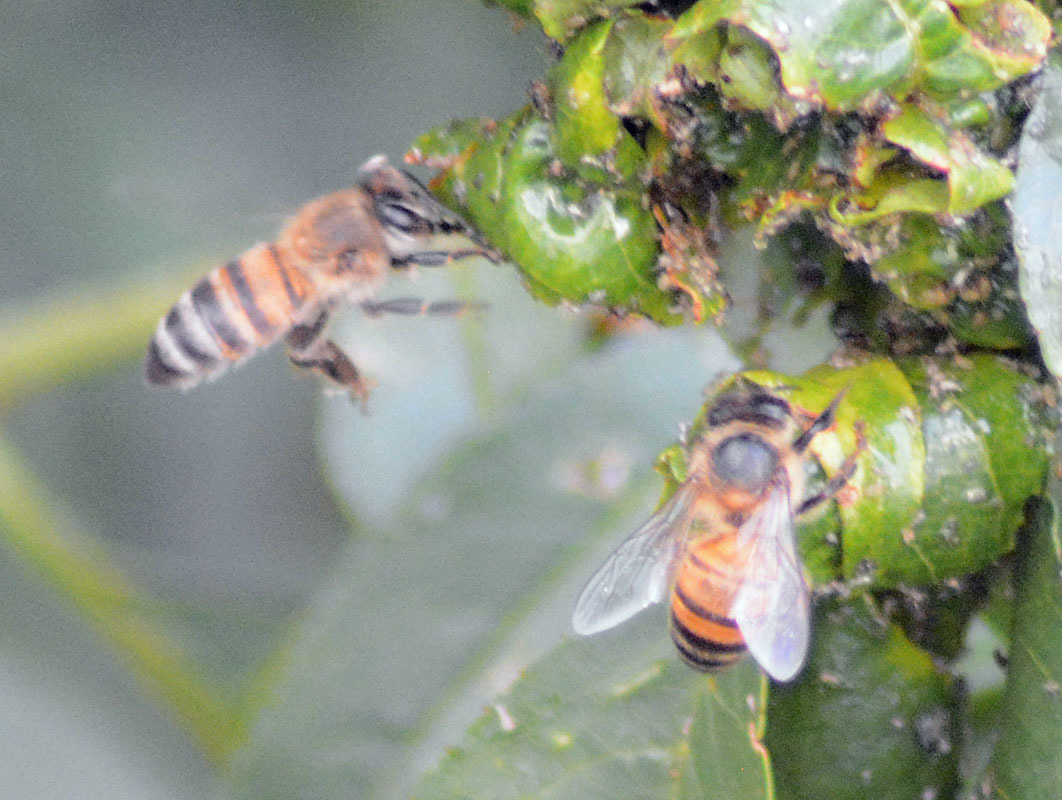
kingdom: Animalia
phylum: Arthropoda
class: Insecta
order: Hymenoptera
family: Apidae
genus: Apis
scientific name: Apis mellifera
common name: Honey bee
